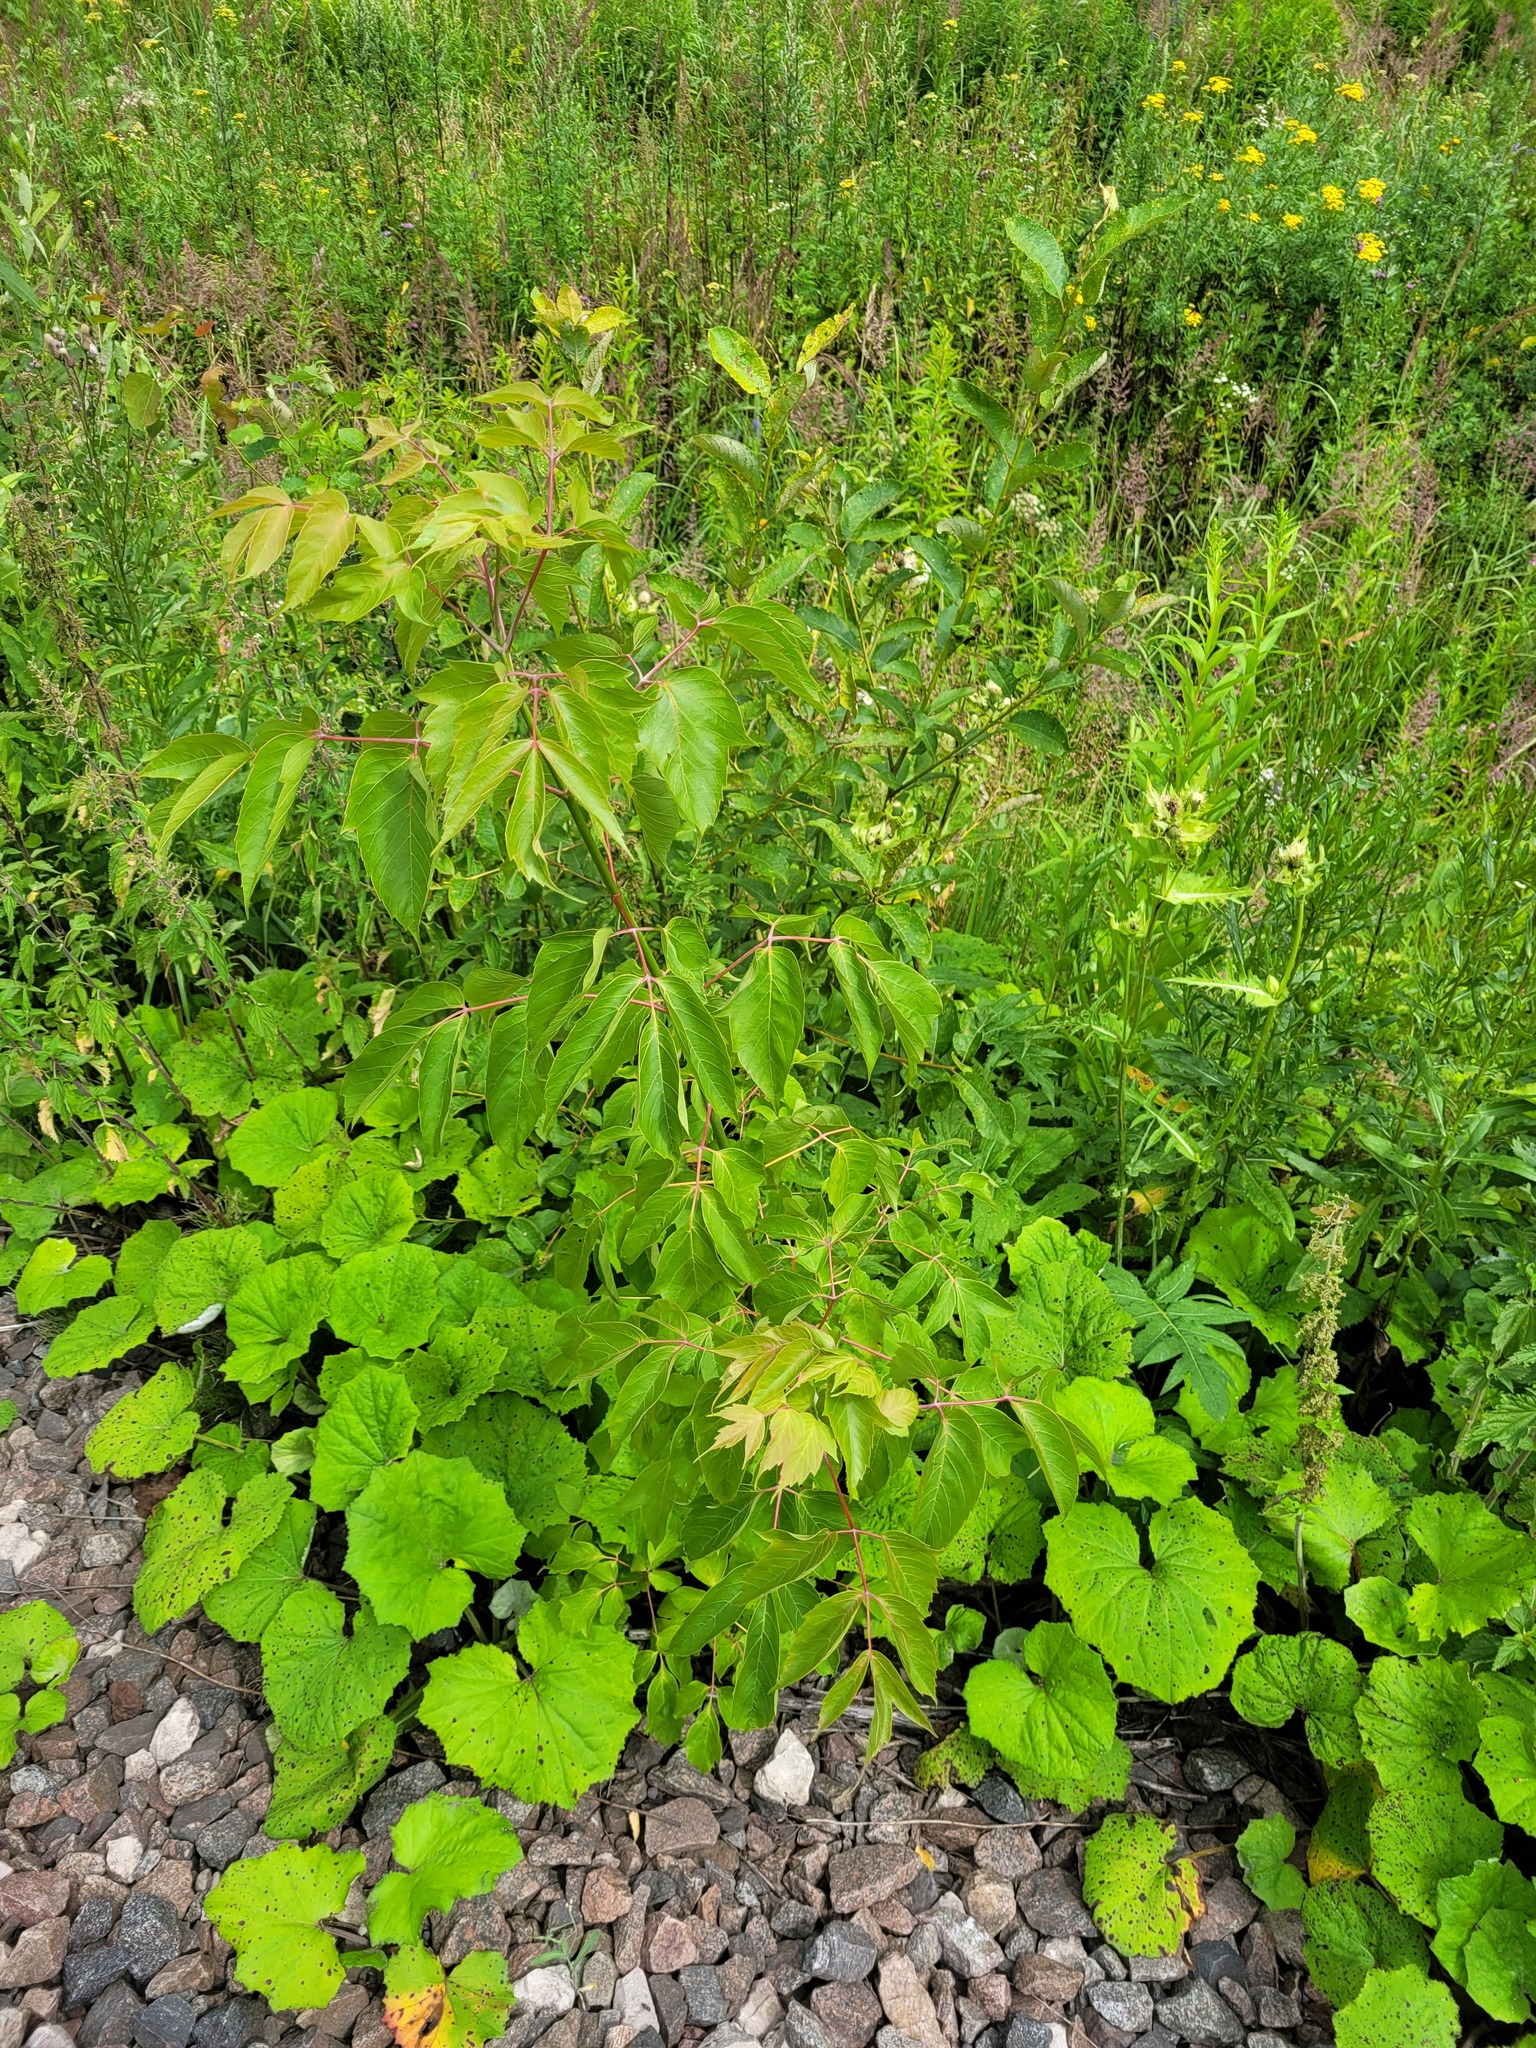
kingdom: Plantae
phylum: Tracheophyta
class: Magnoliopsida
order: Sapindales
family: Sapindaceae
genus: Acer
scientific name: Acer negundo
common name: Ashleaf maple
